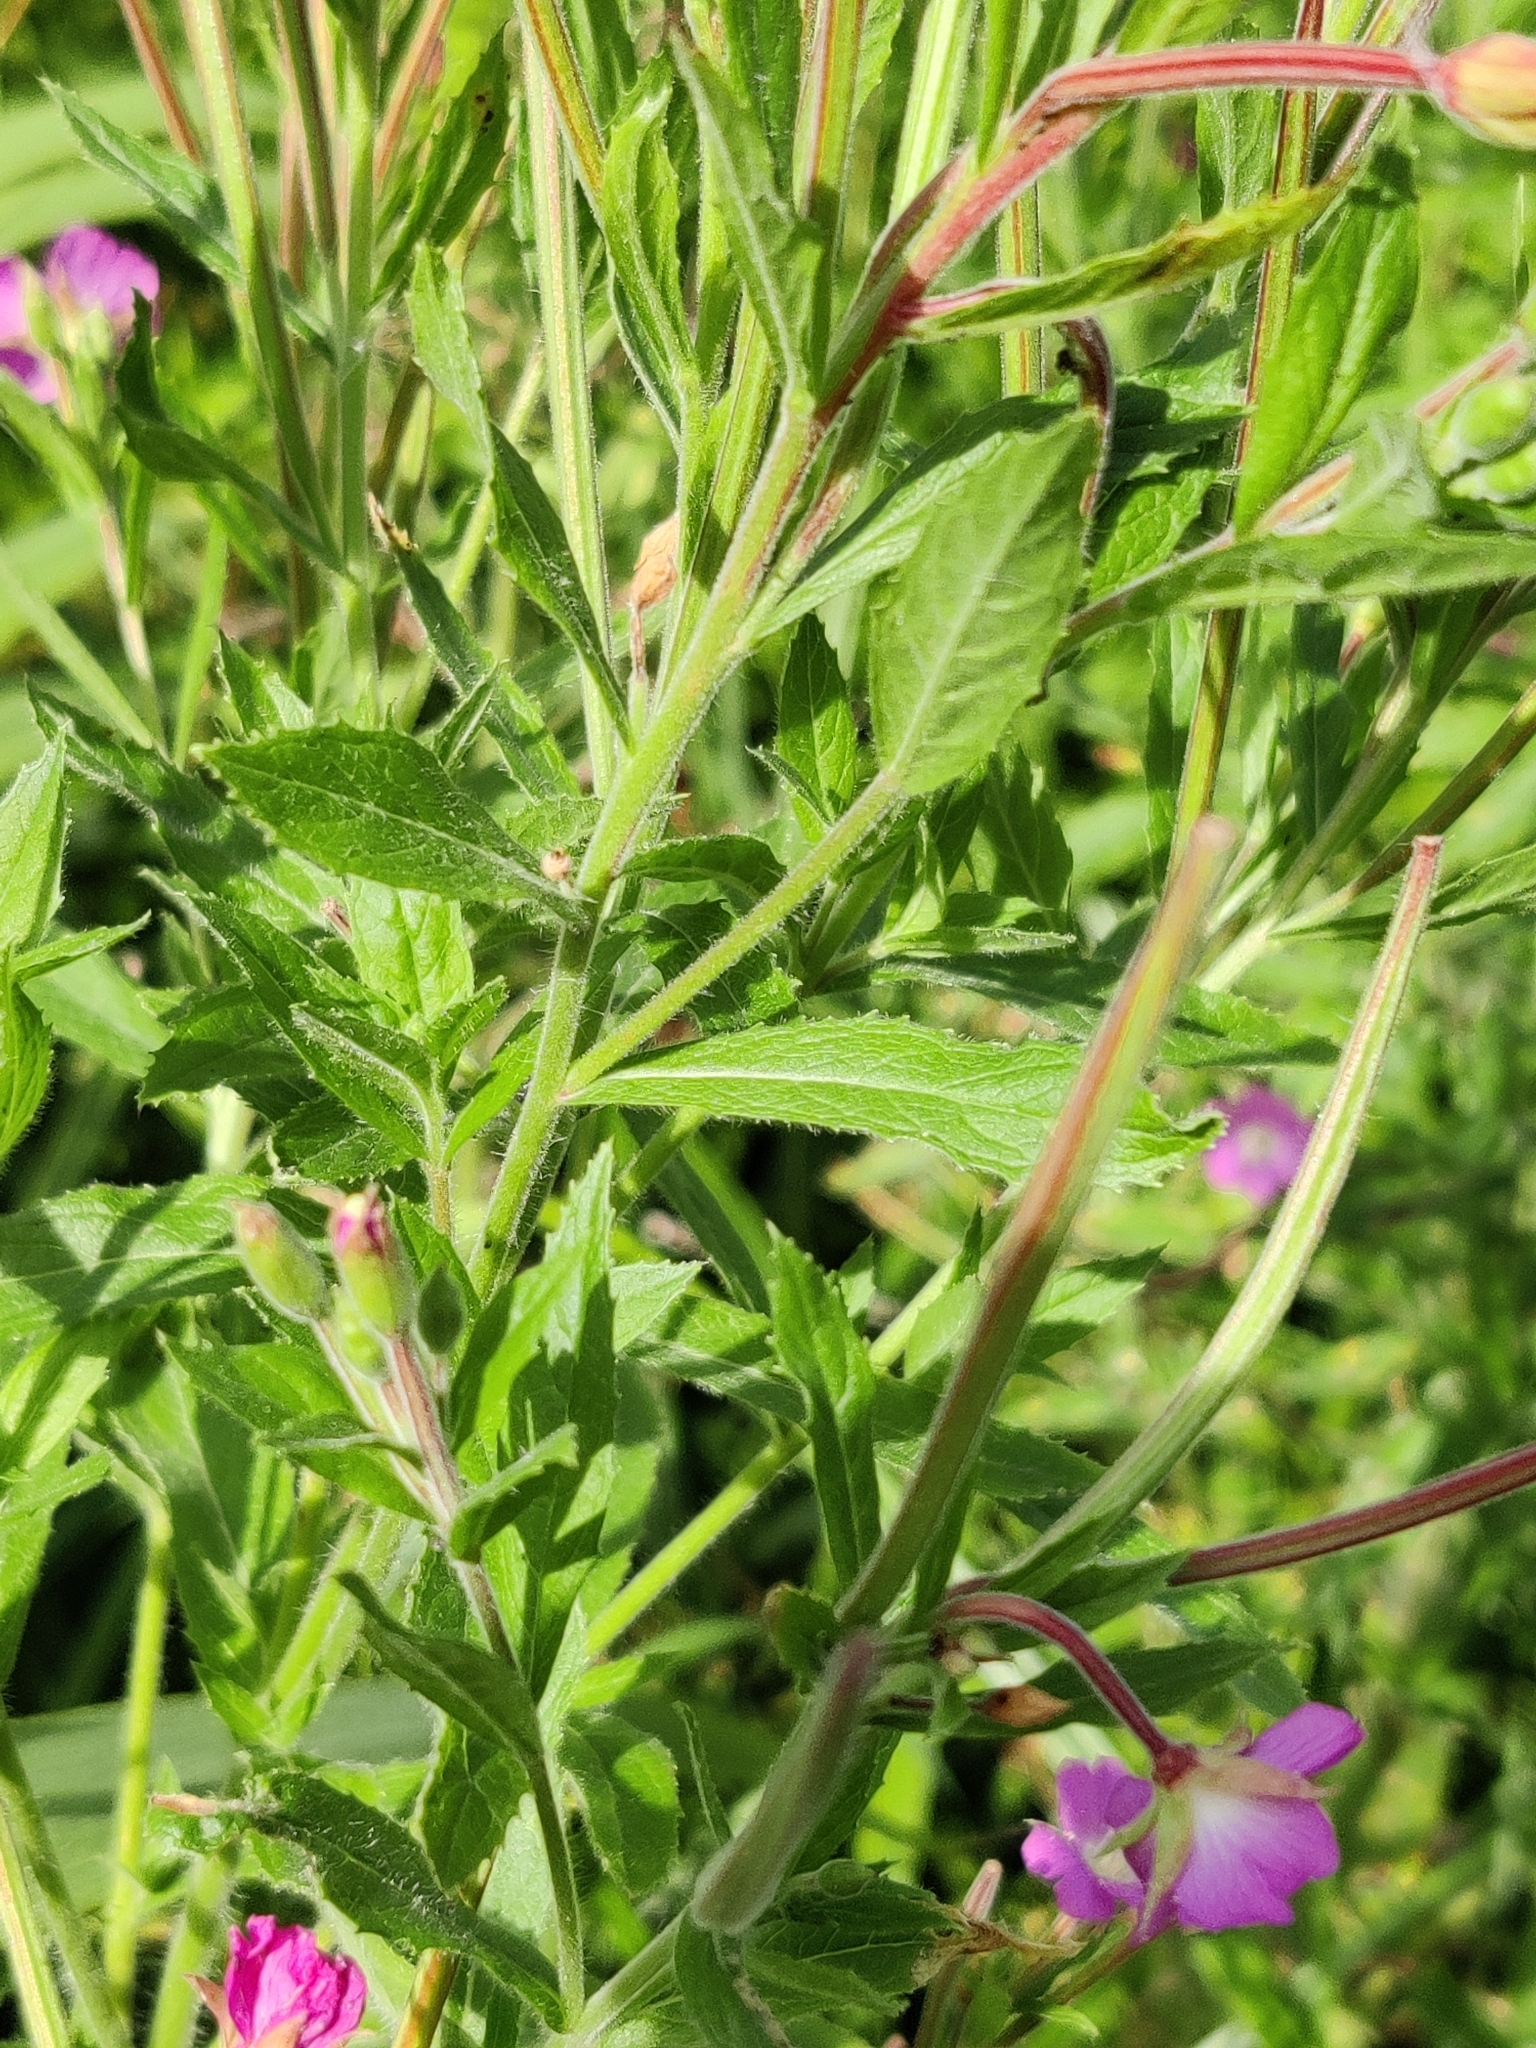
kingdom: Plantae
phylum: Tracheophyta
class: Magnoliopsida
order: Myrtales
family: Onagraceae
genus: Epilobium
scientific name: Epilobium hirsutum
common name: Great willowherb
